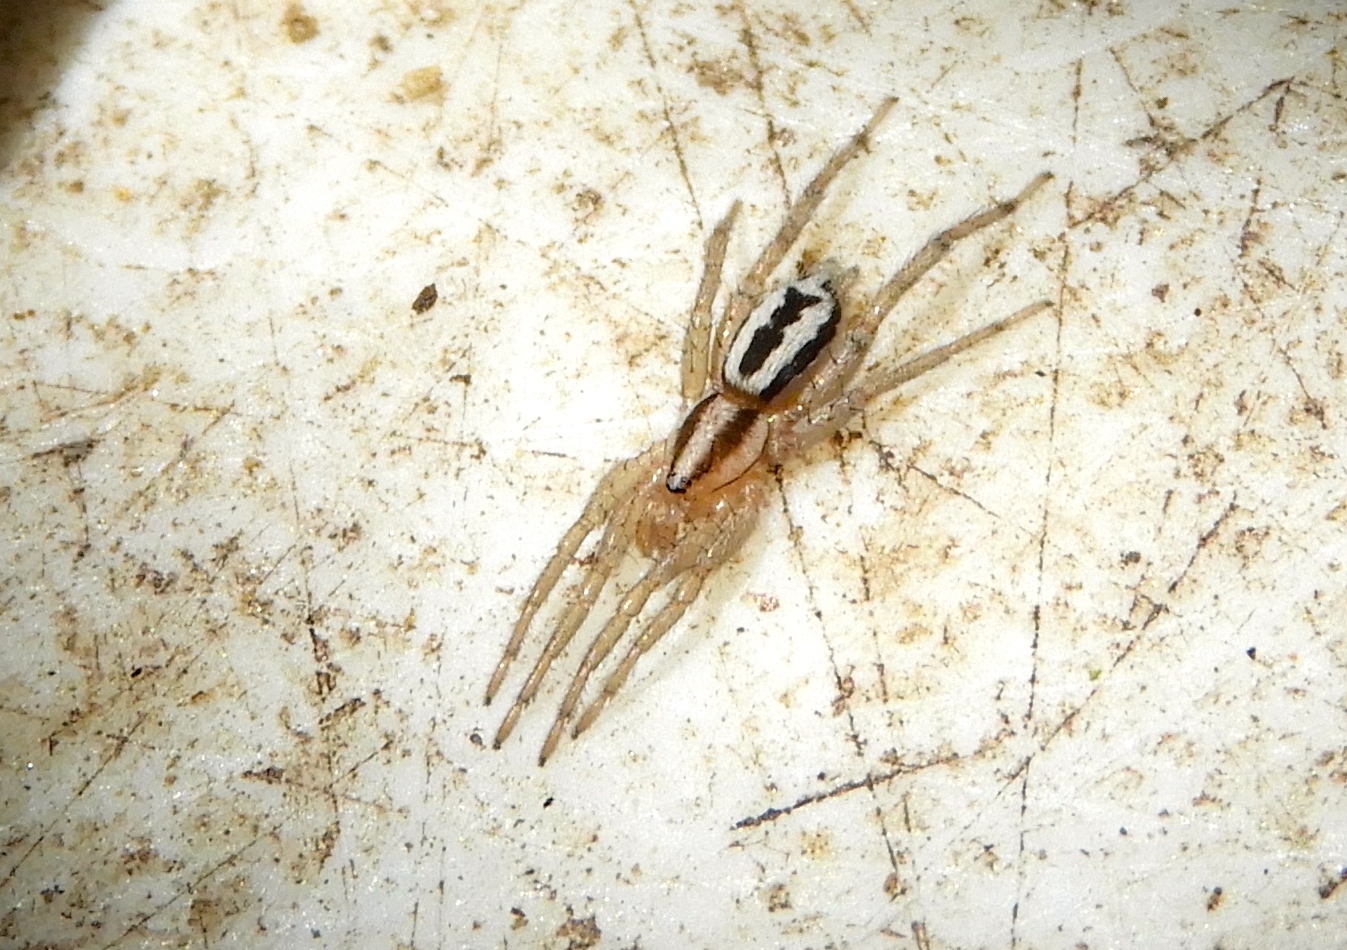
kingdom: Animalia
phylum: Arthropoda
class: Arachnida
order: Araneae
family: Gnaphosidae
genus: Cesonia
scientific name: Cesonia
